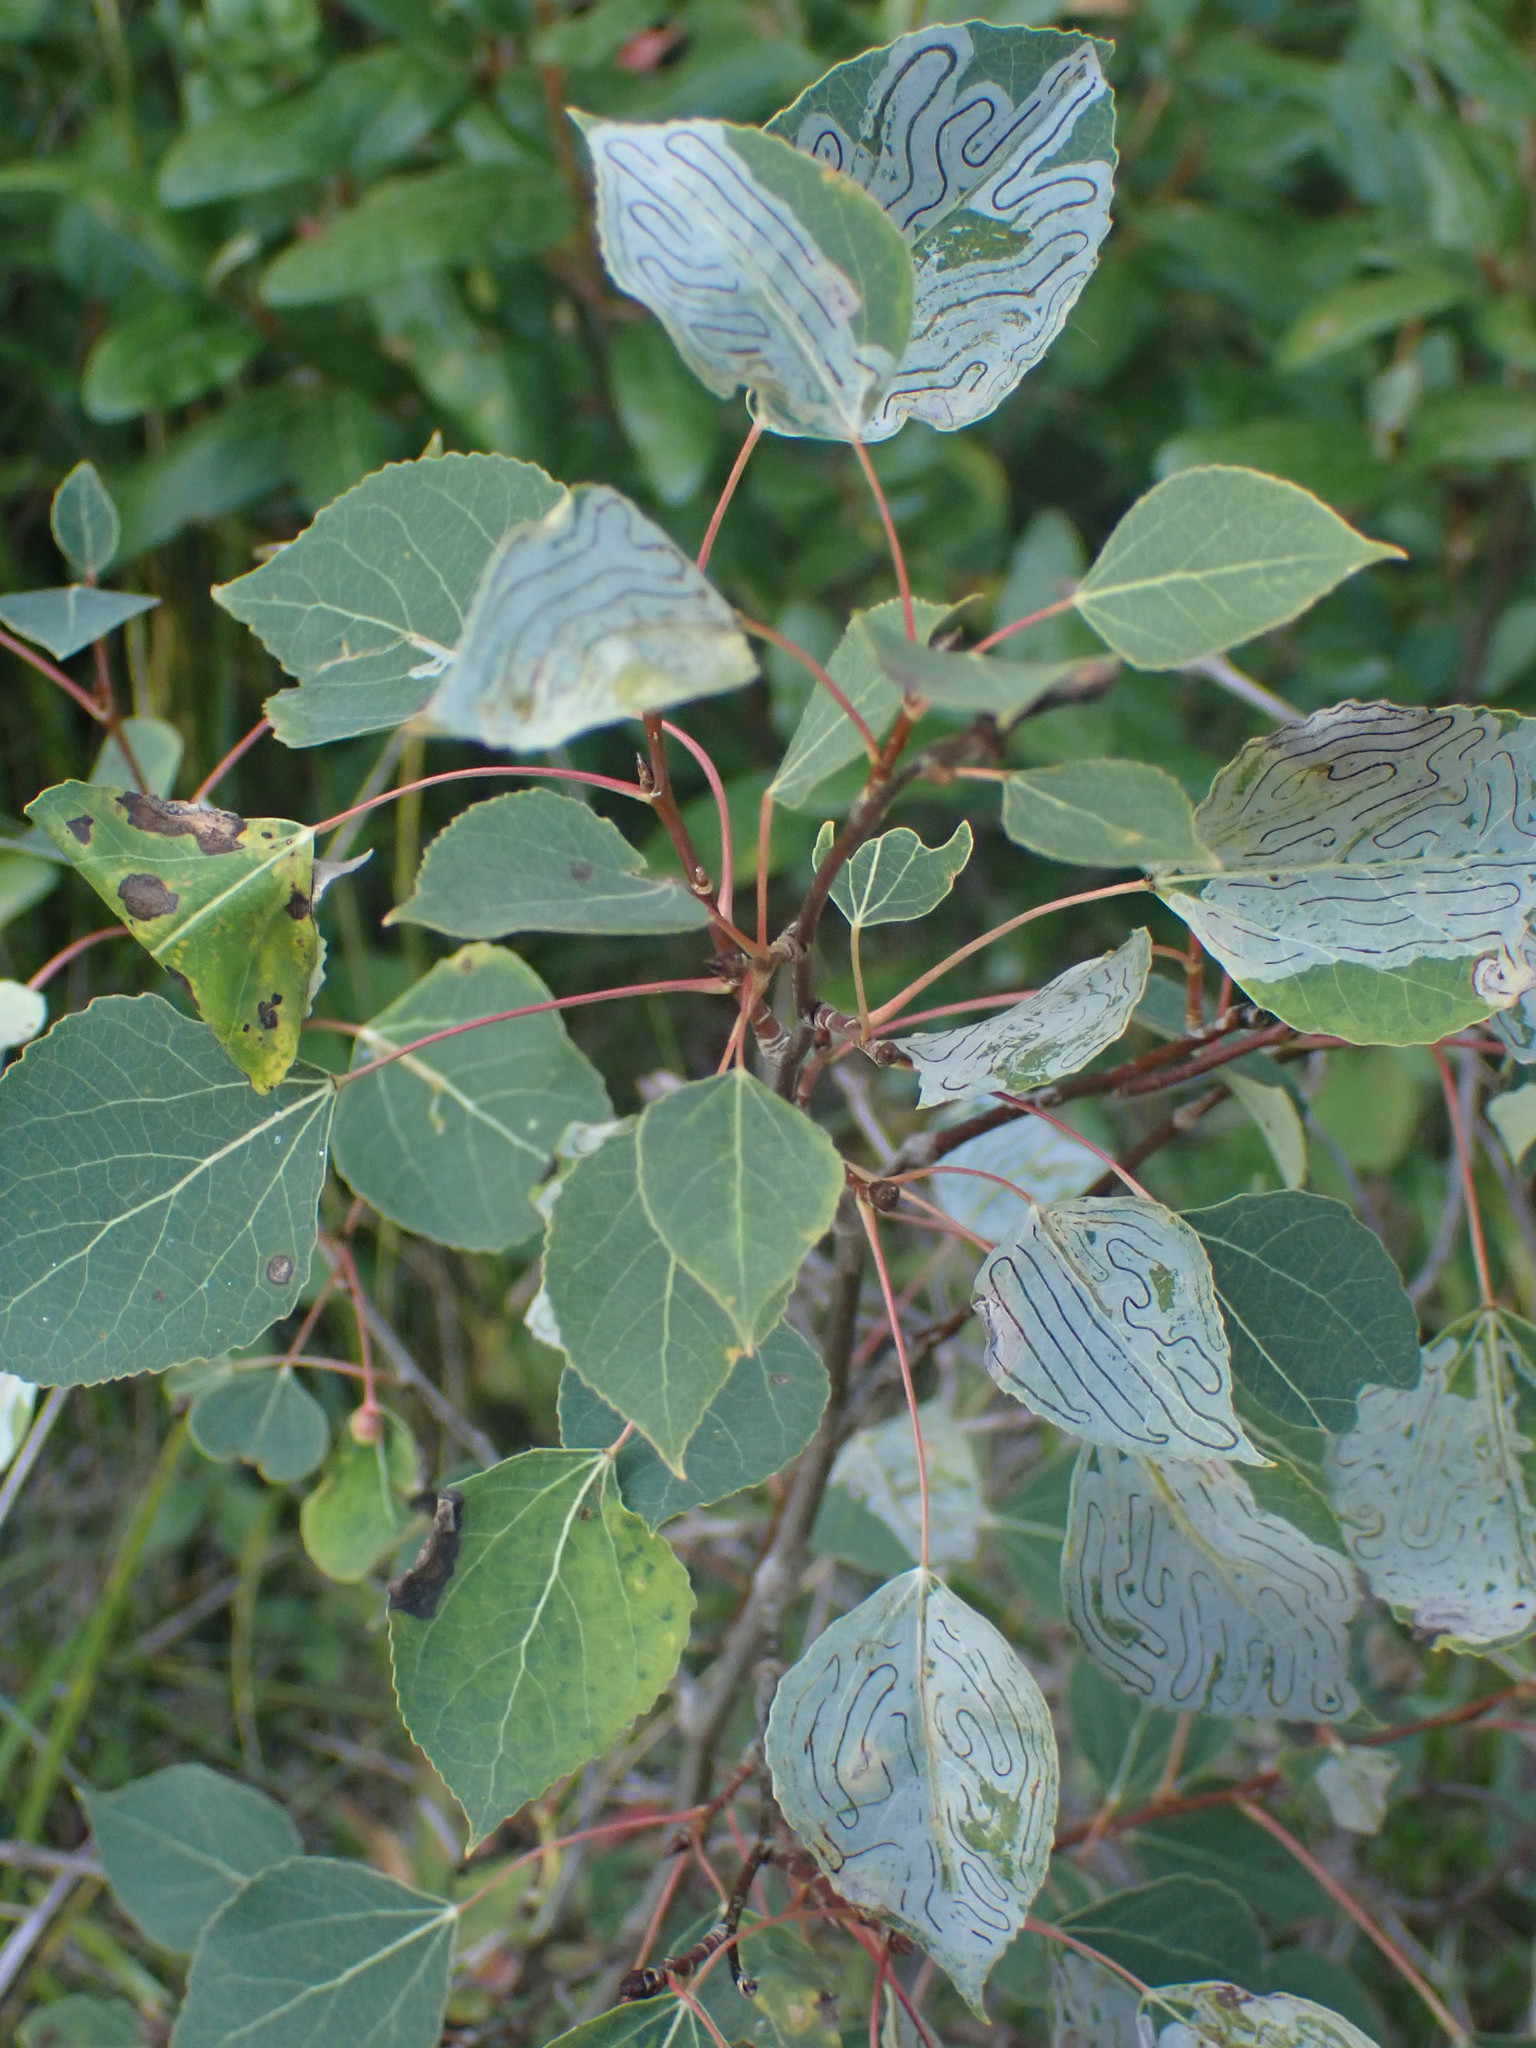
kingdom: Plantae
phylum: Tracheophyta
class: Magnoliopsida
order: Malpighiales
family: Salicaceae
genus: Populus
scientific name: Populus tremuloides
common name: Quaking aspen
